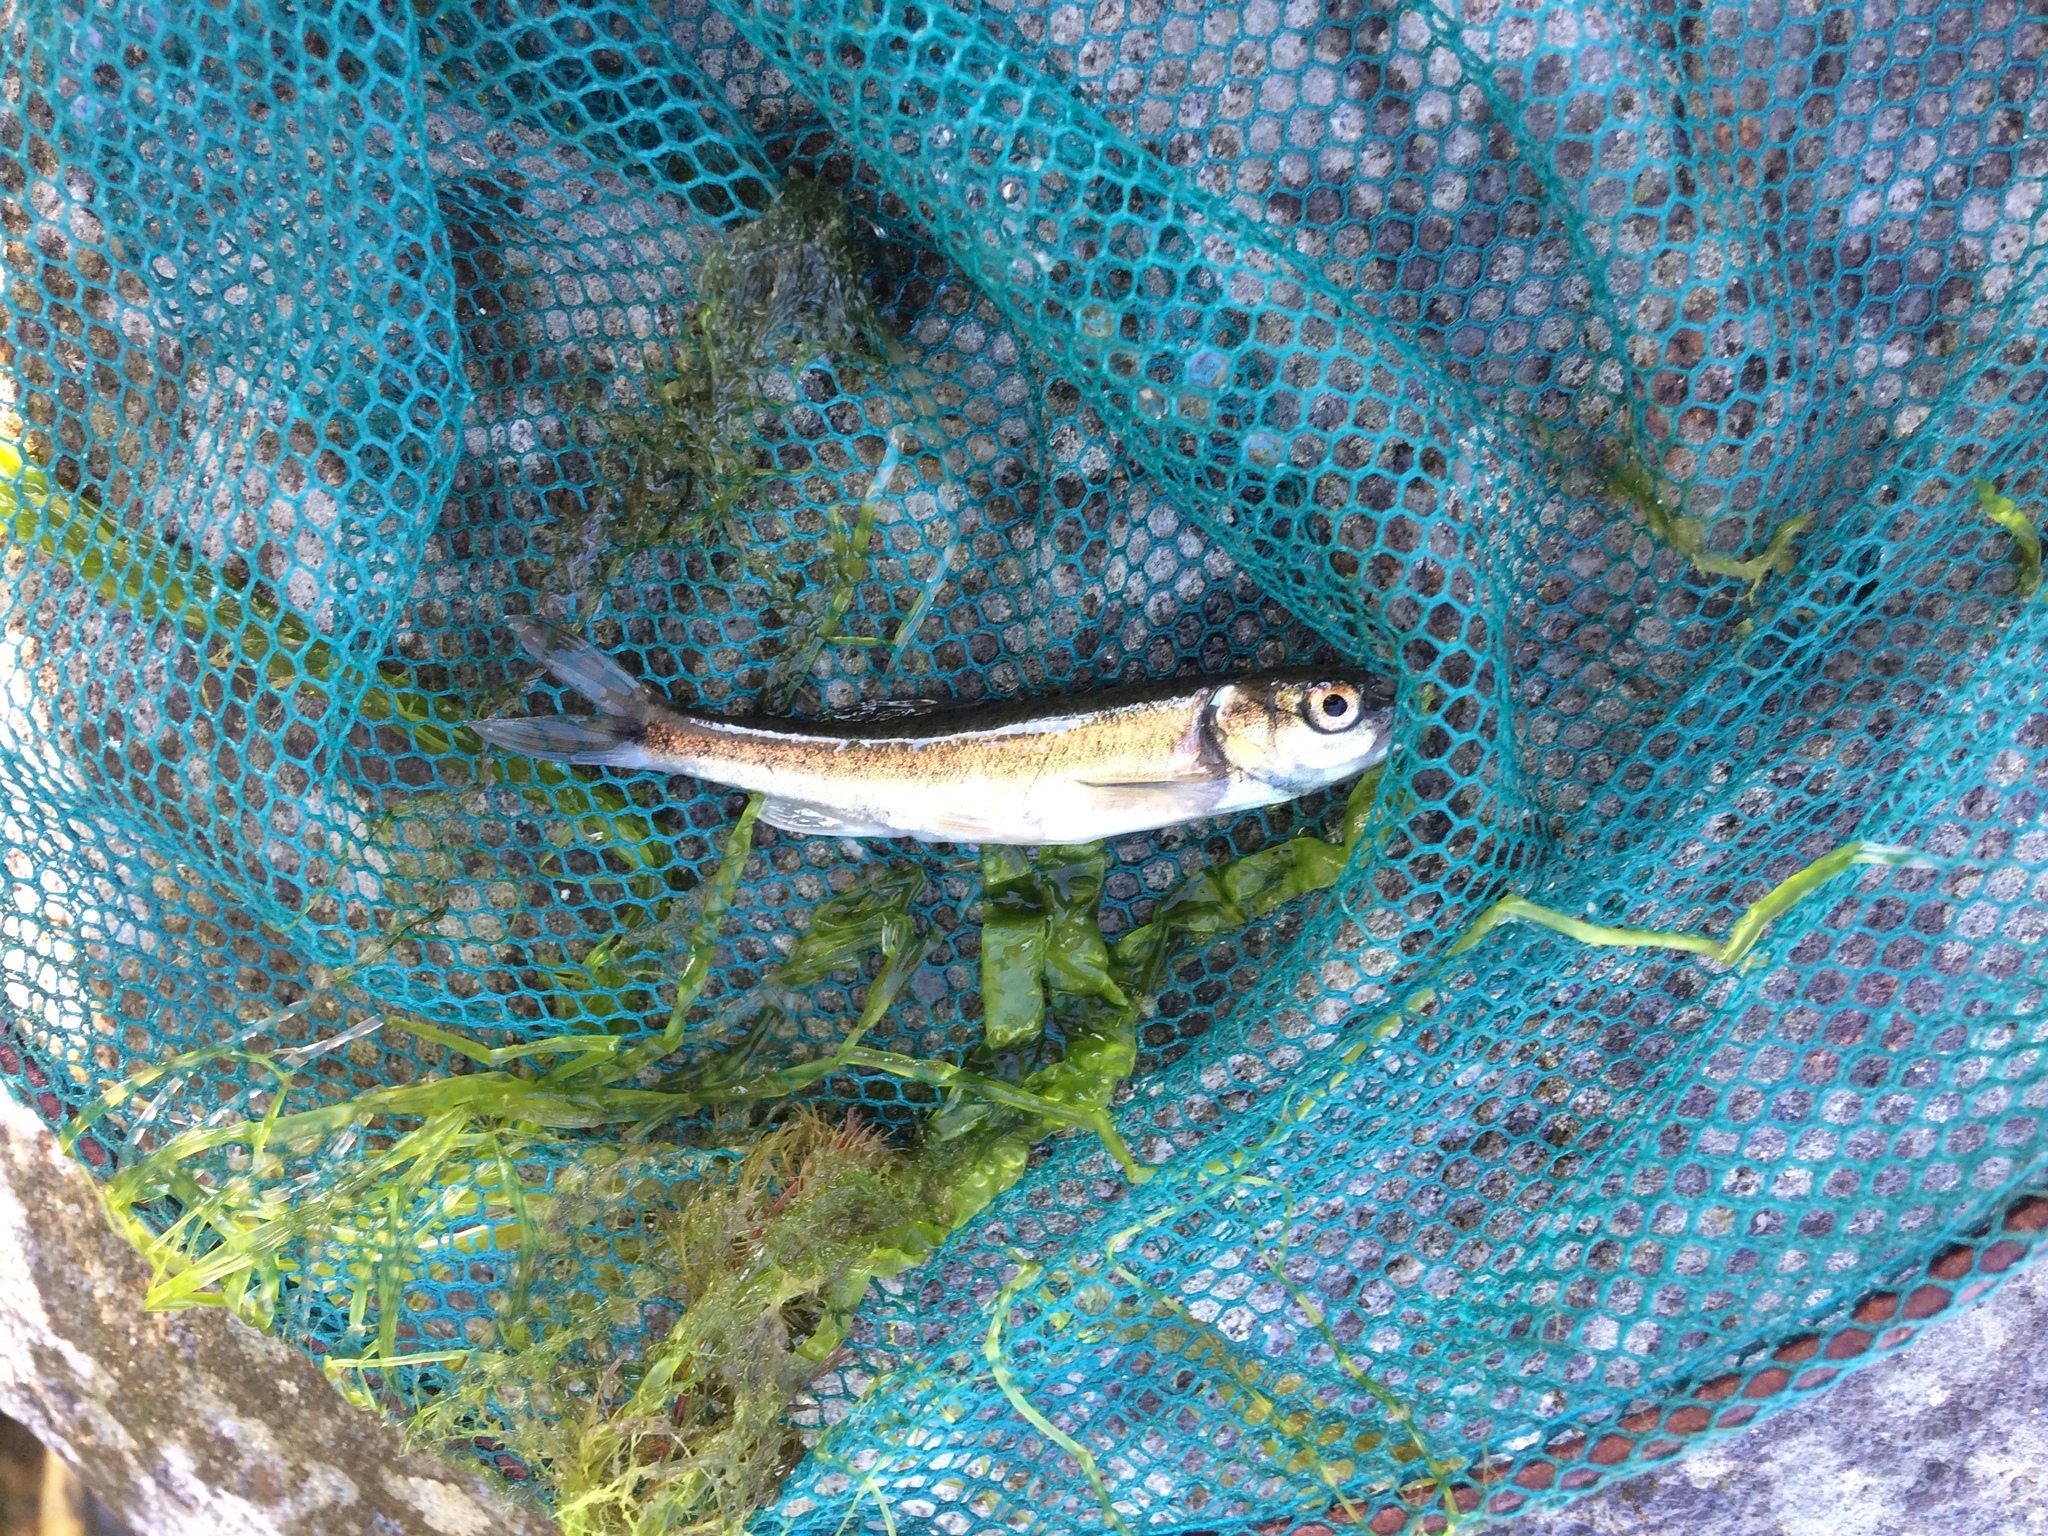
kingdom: Animalia
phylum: Chordata
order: Cypriniformes
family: Cyprinidae
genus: Phoxinus
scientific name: Phoxinus phoxinus
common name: Minnow
